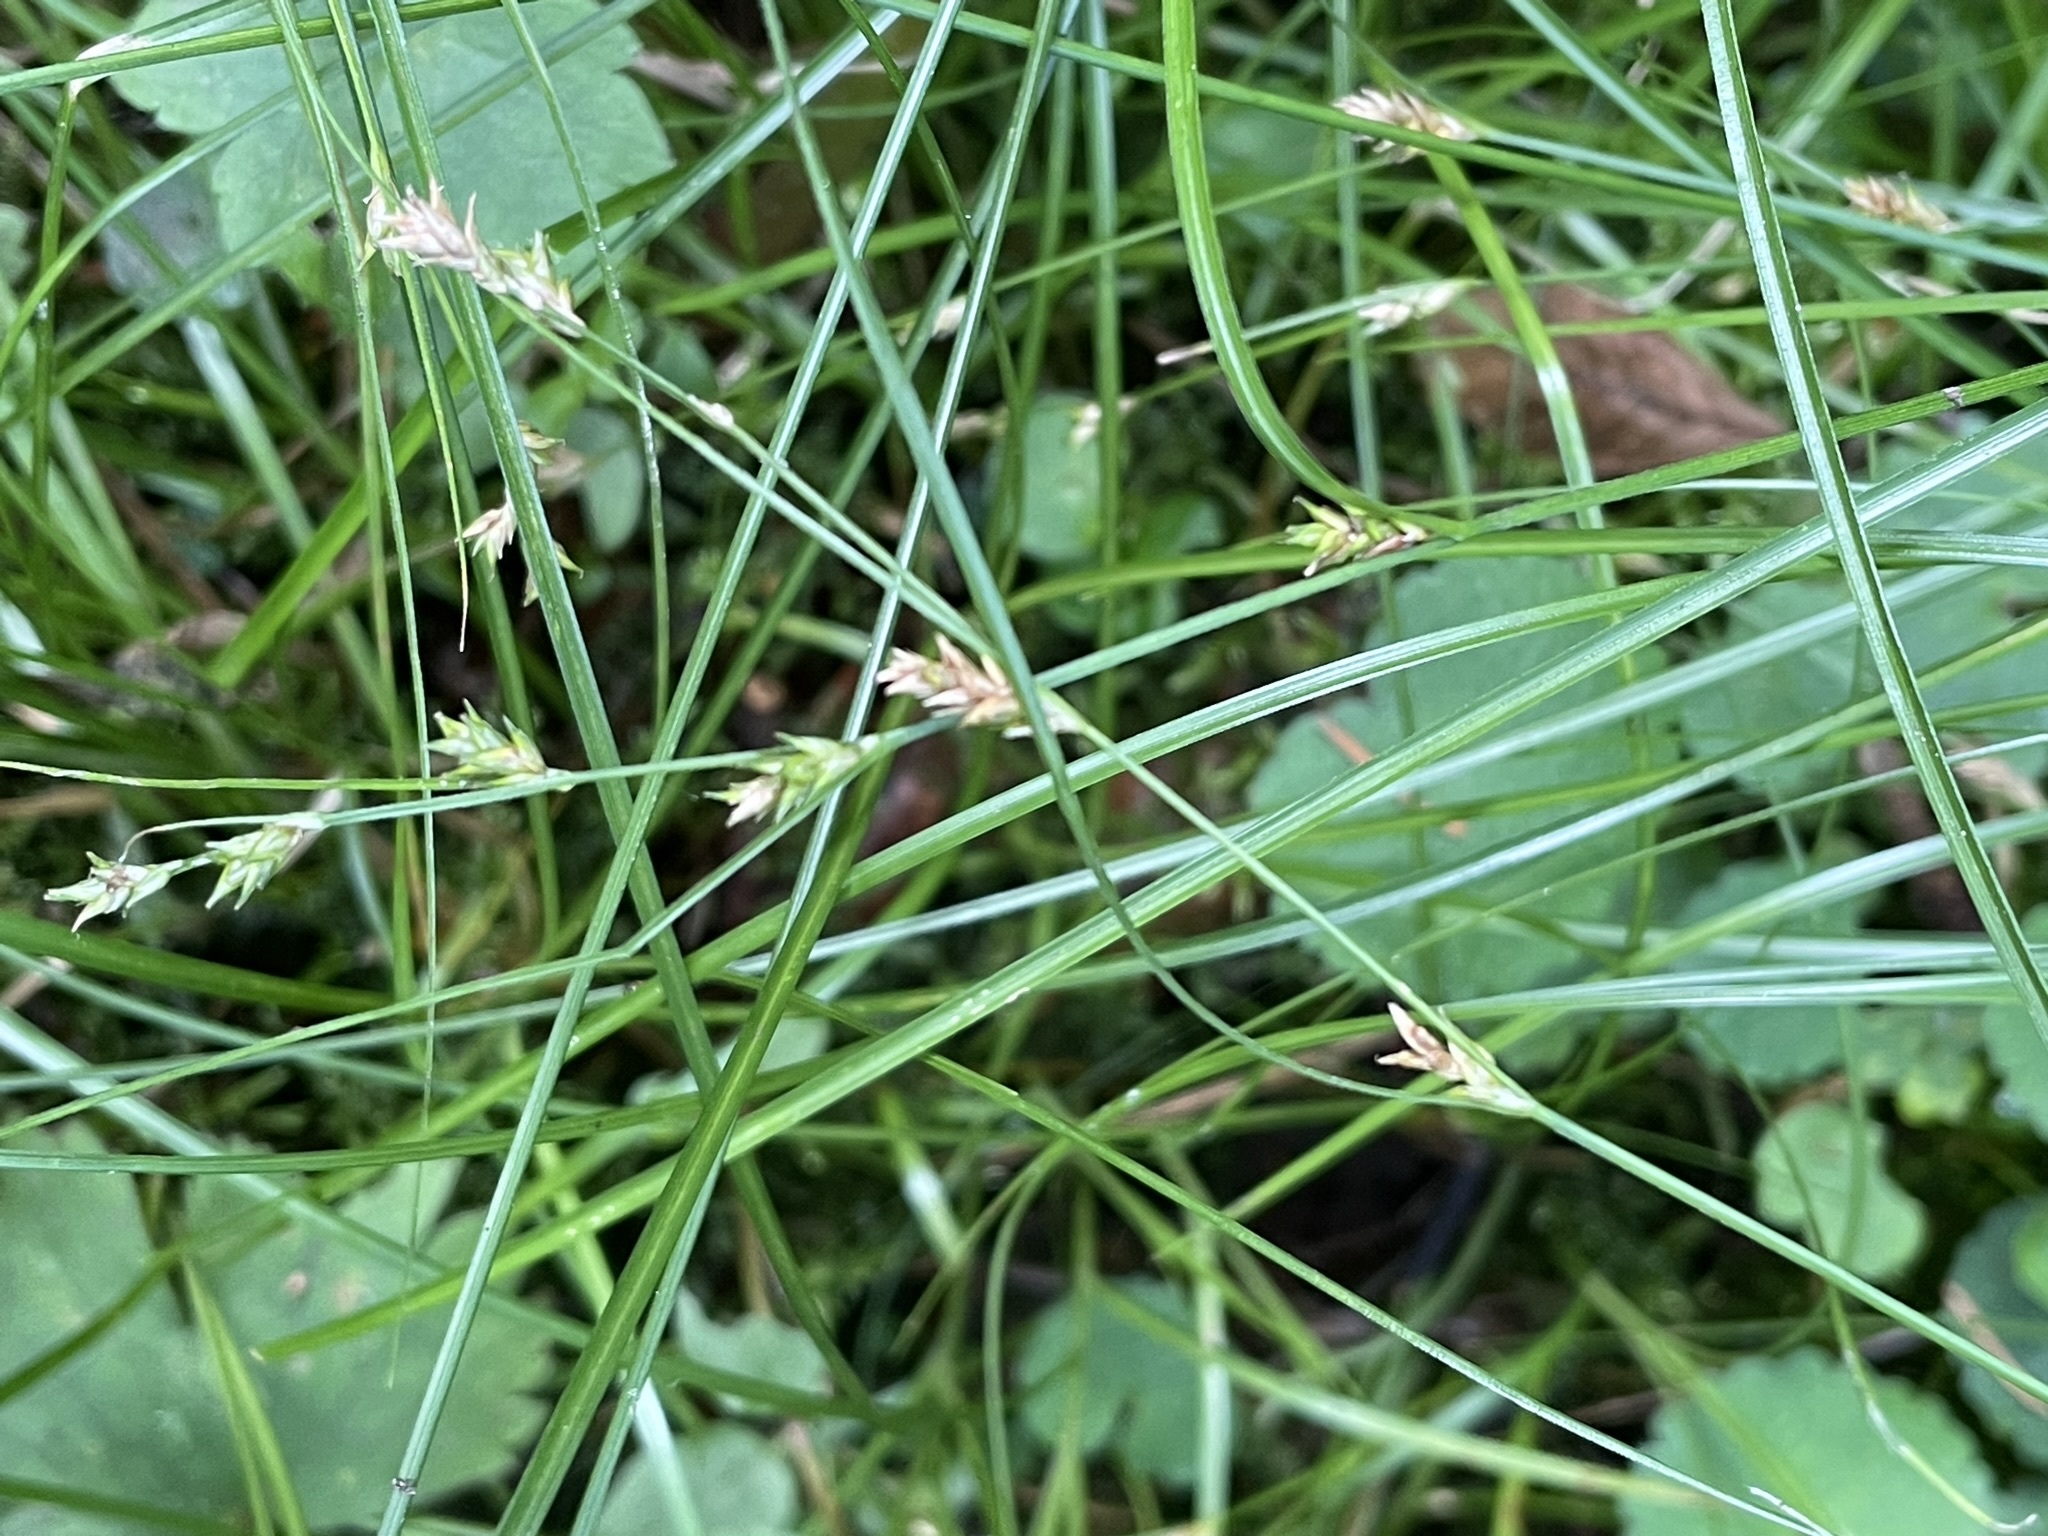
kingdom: Plantae
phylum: Tracheophyta
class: Liliopsida
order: Poales
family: Cyperaceae
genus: Carex
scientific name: Carex remota
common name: Remote sedge
